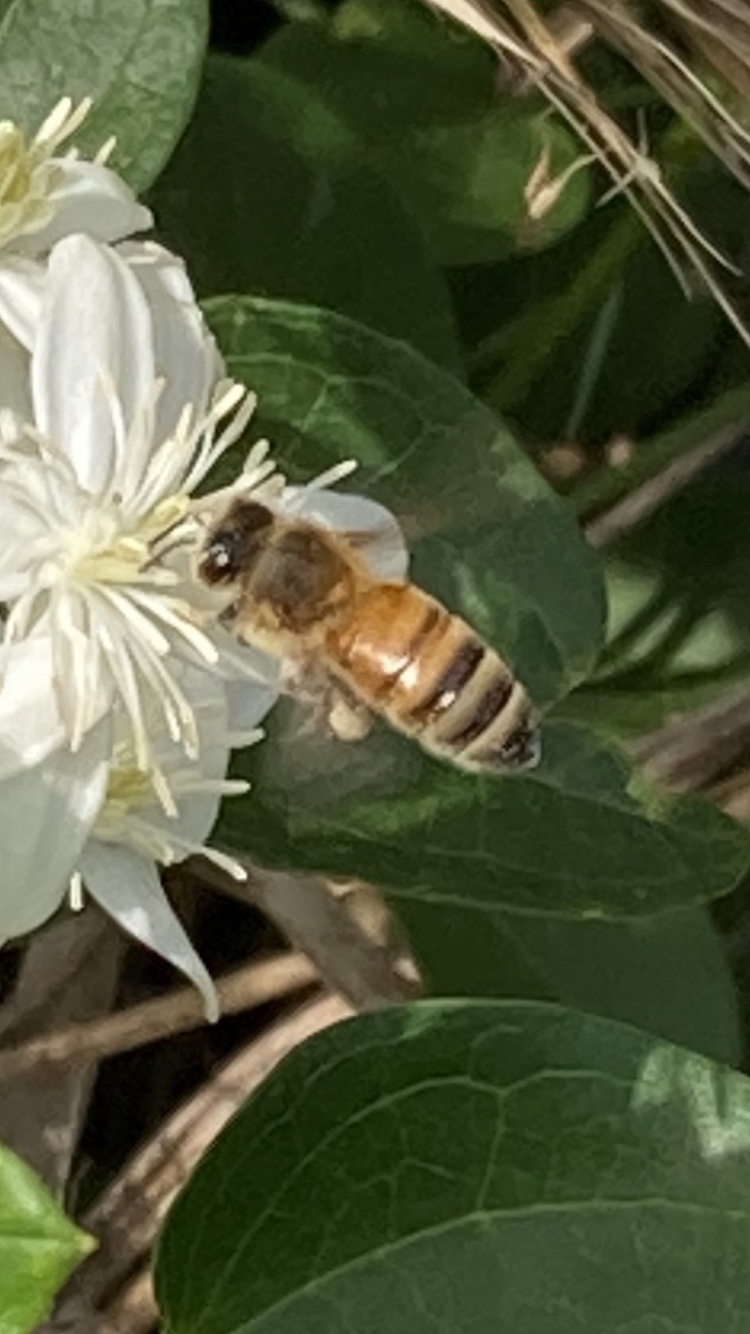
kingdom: Animalia
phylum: Arthropoda
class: Insecta
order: Hymenoptera
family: Apidae
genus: Apis
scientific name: Apis mellifera
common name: Honey bee
